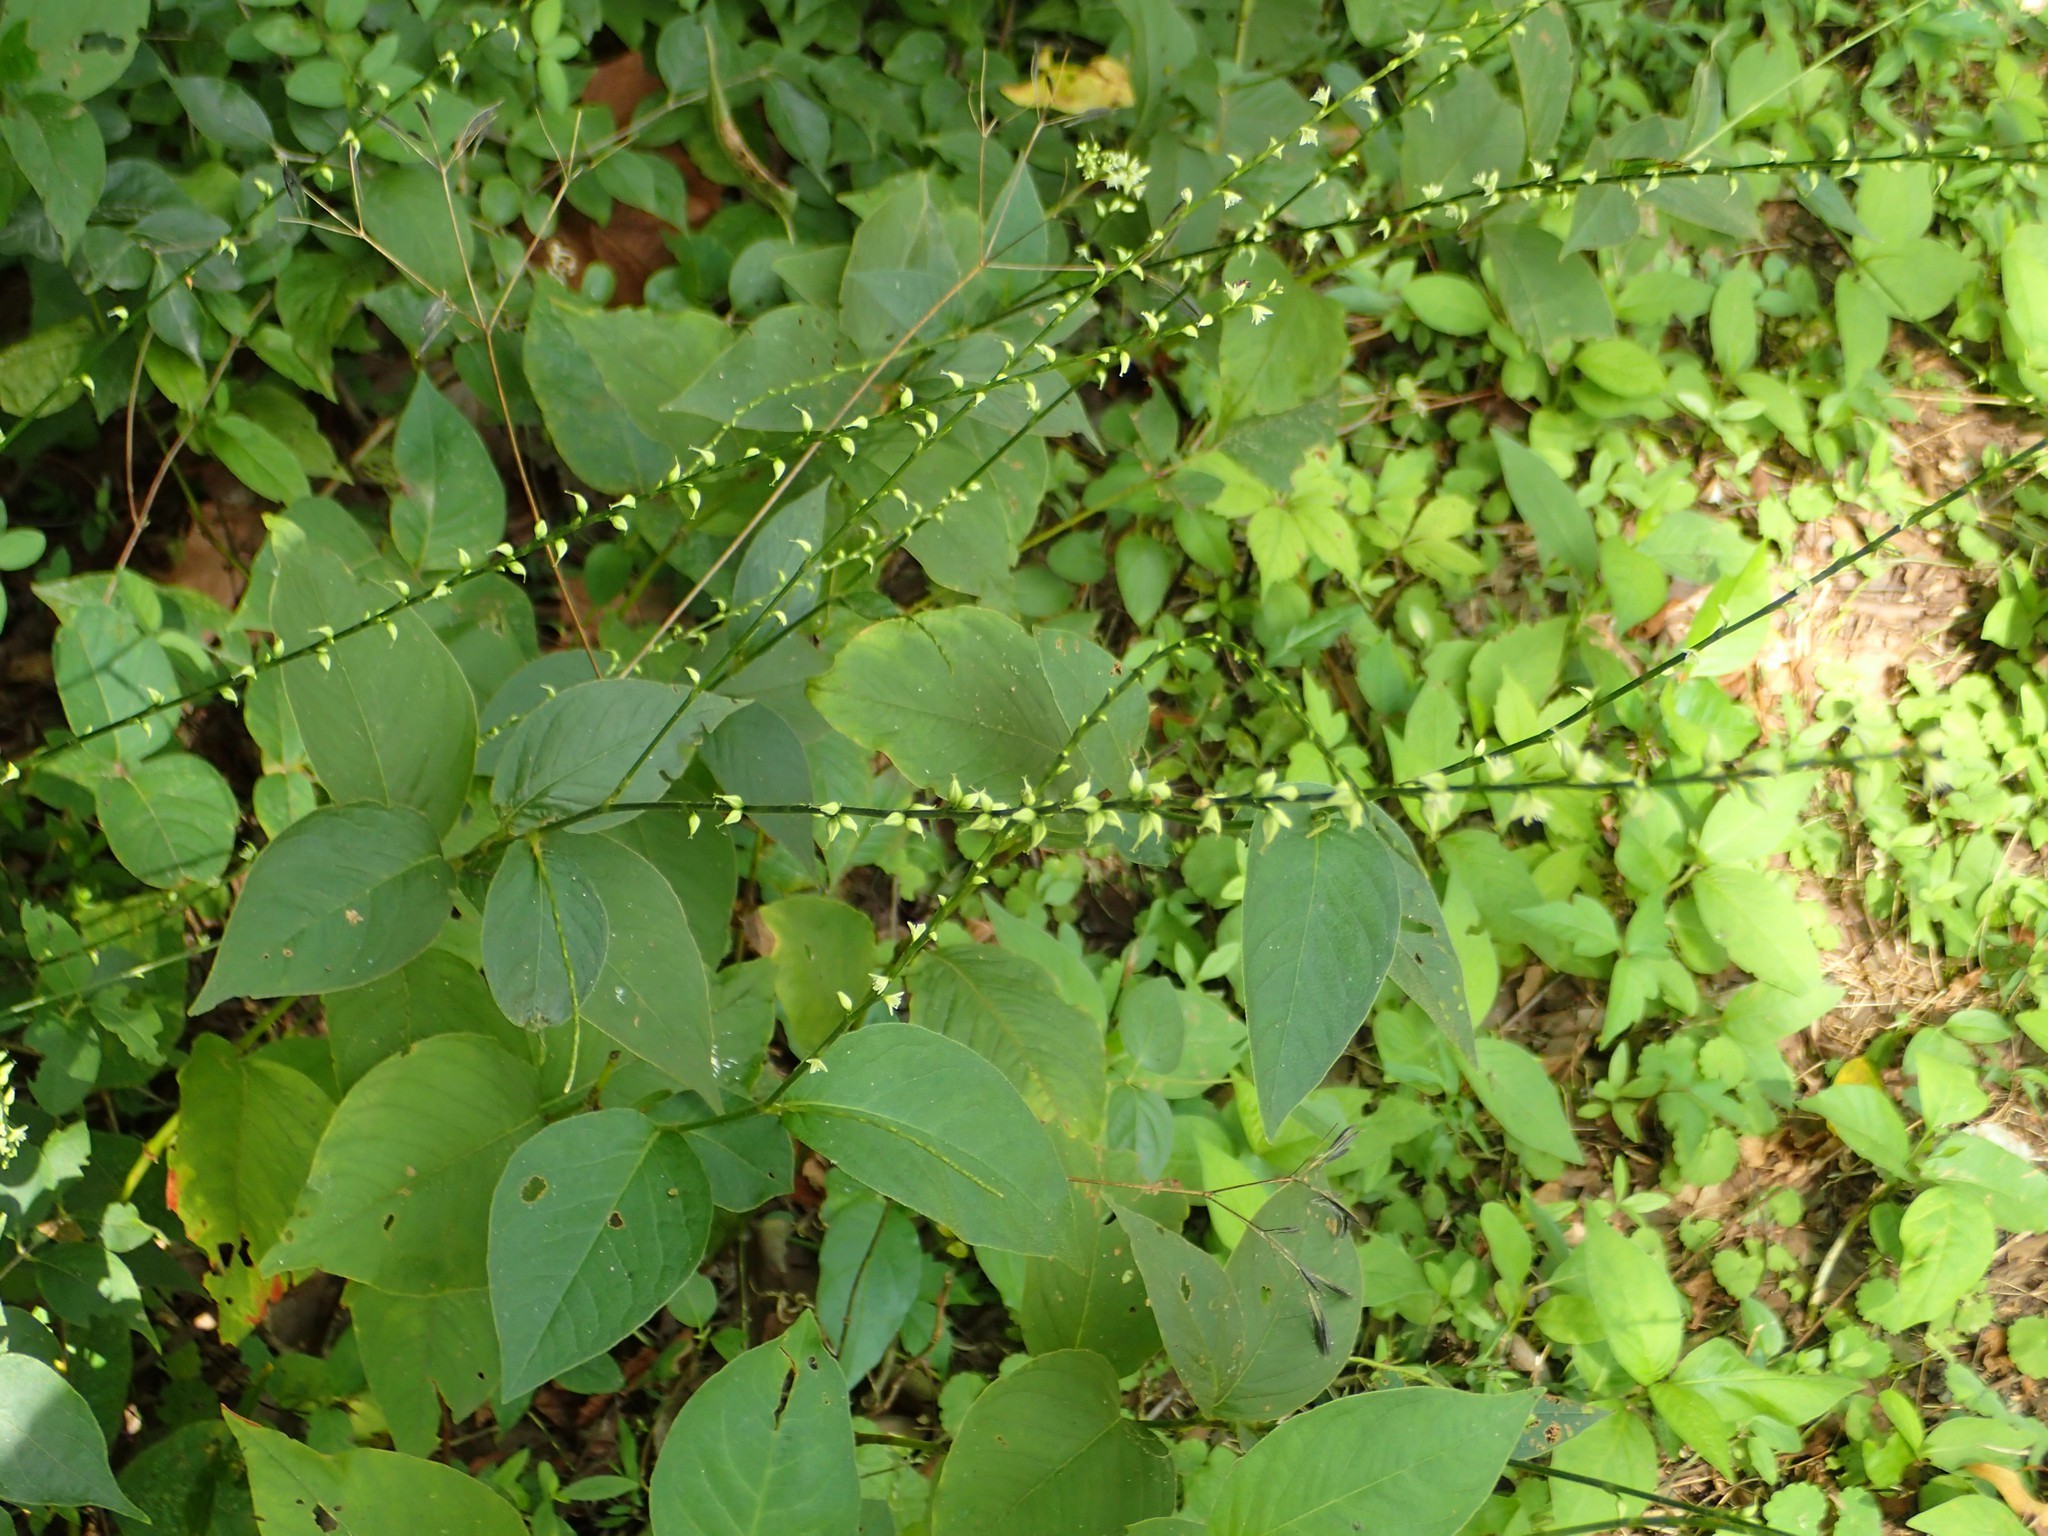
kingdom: Plantae
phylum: Tracheophyta
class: Magnoliopsida
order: Caryophyllales
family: Polygonaceae
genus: Persicaria
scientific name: Persicaria virginiana
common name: Jumpseed
